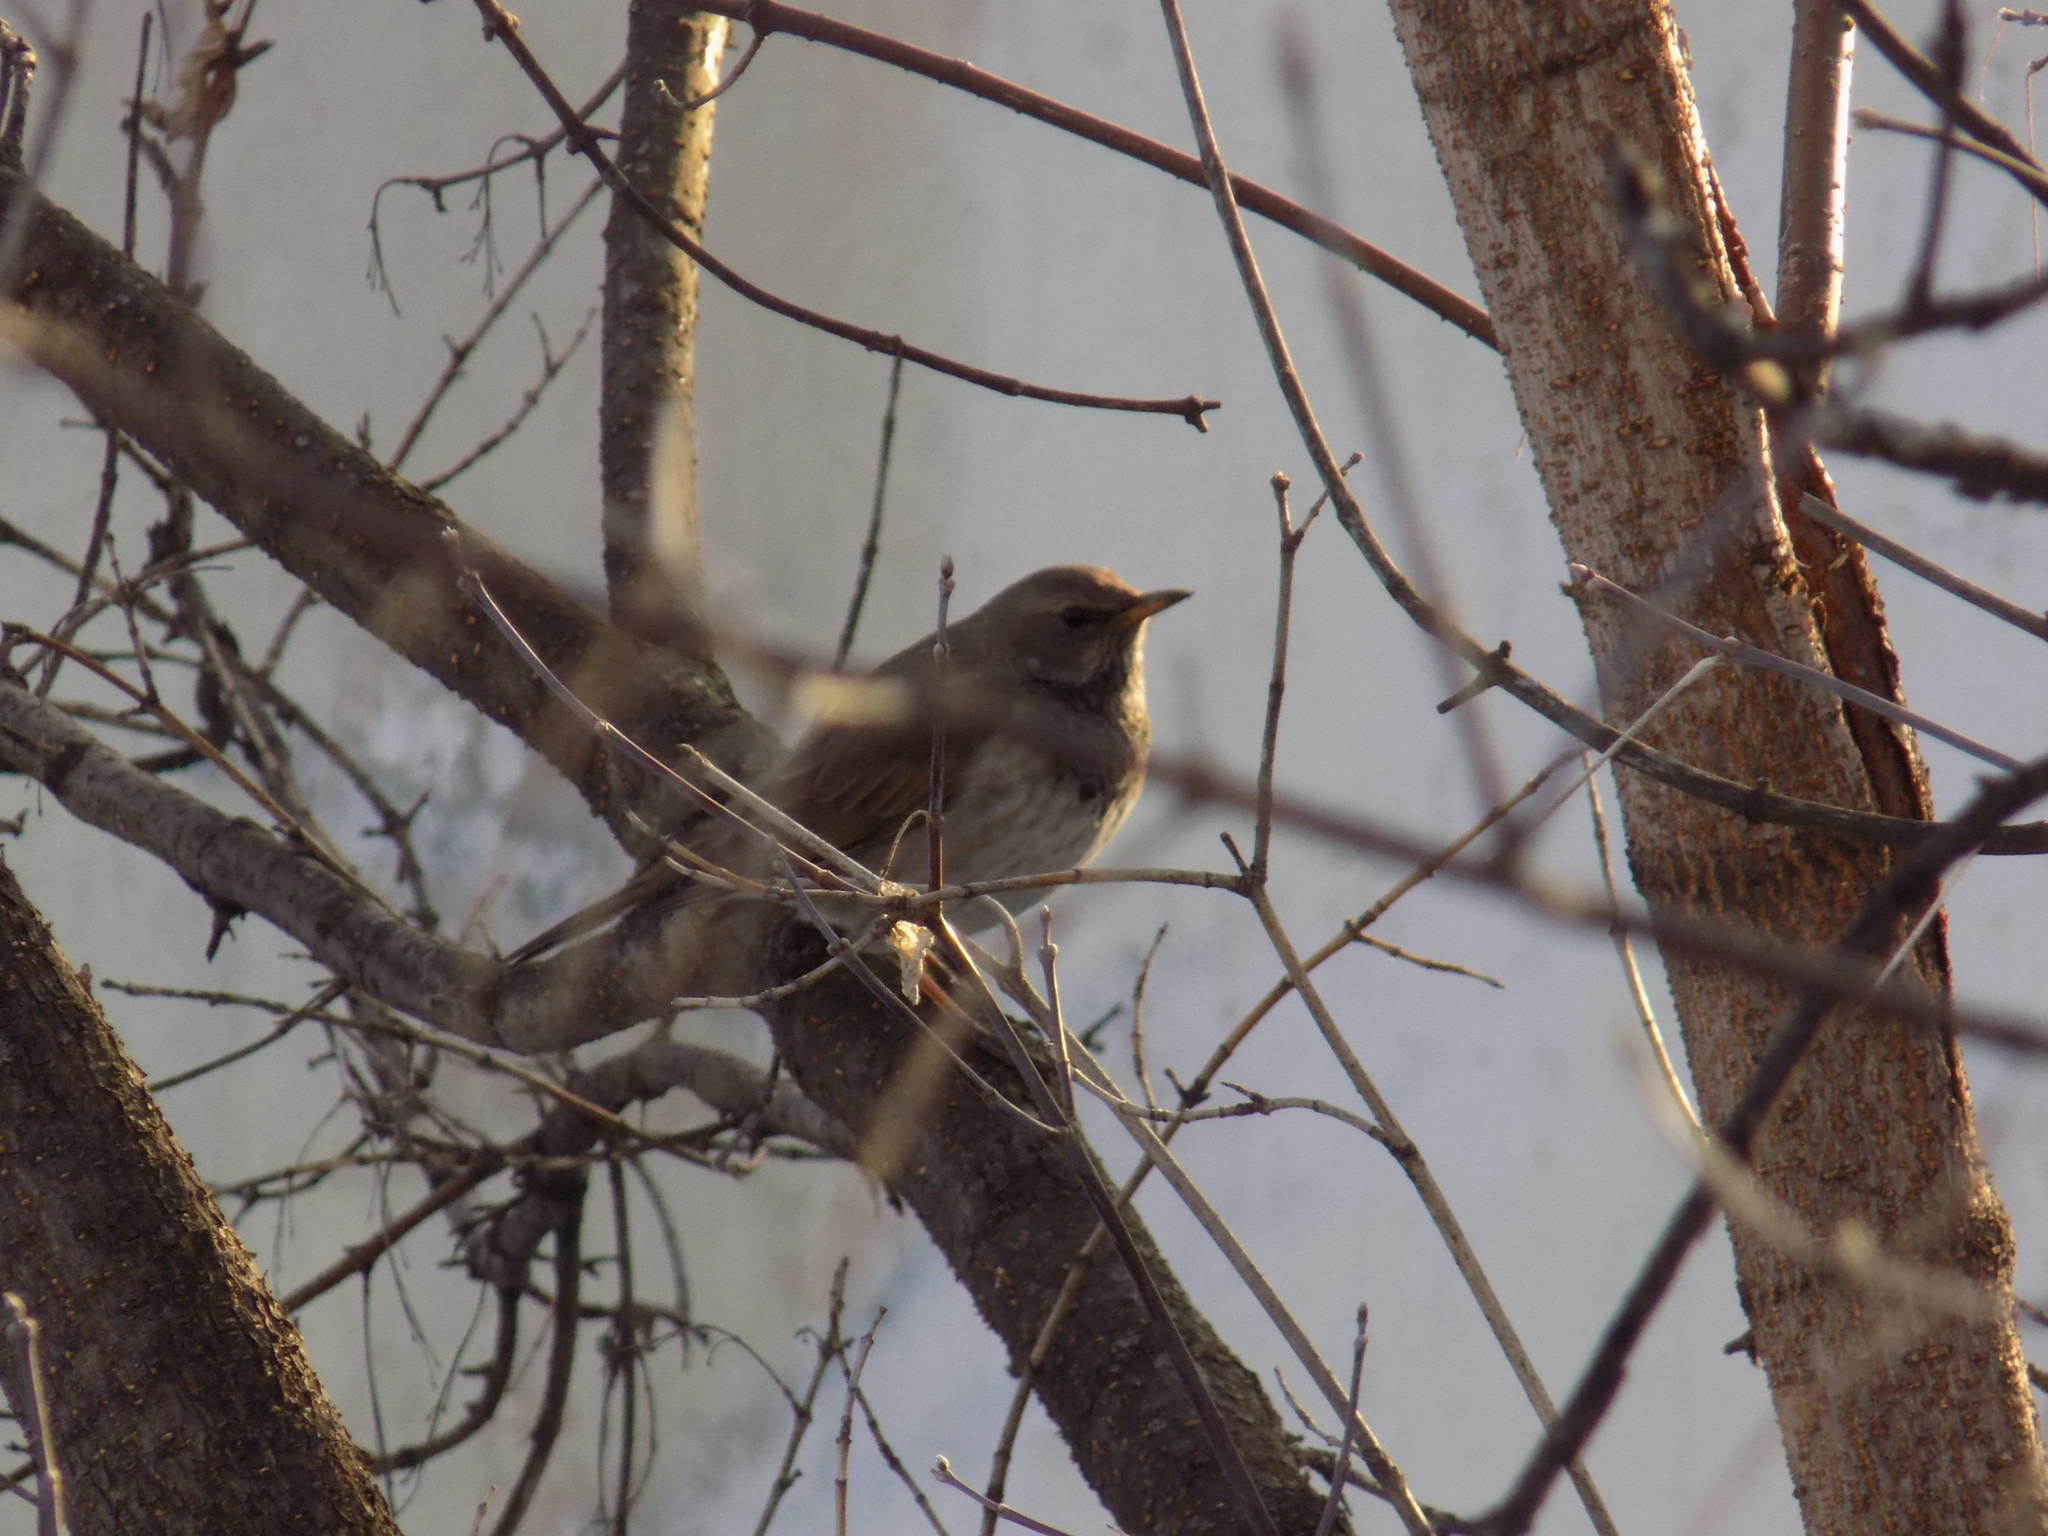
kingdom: Animalia
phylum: Chordata
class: Aves
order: Passeriformes
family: Turdidae
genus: Turdus
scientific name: Turdus atrogularis
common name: Black-throated thrush
